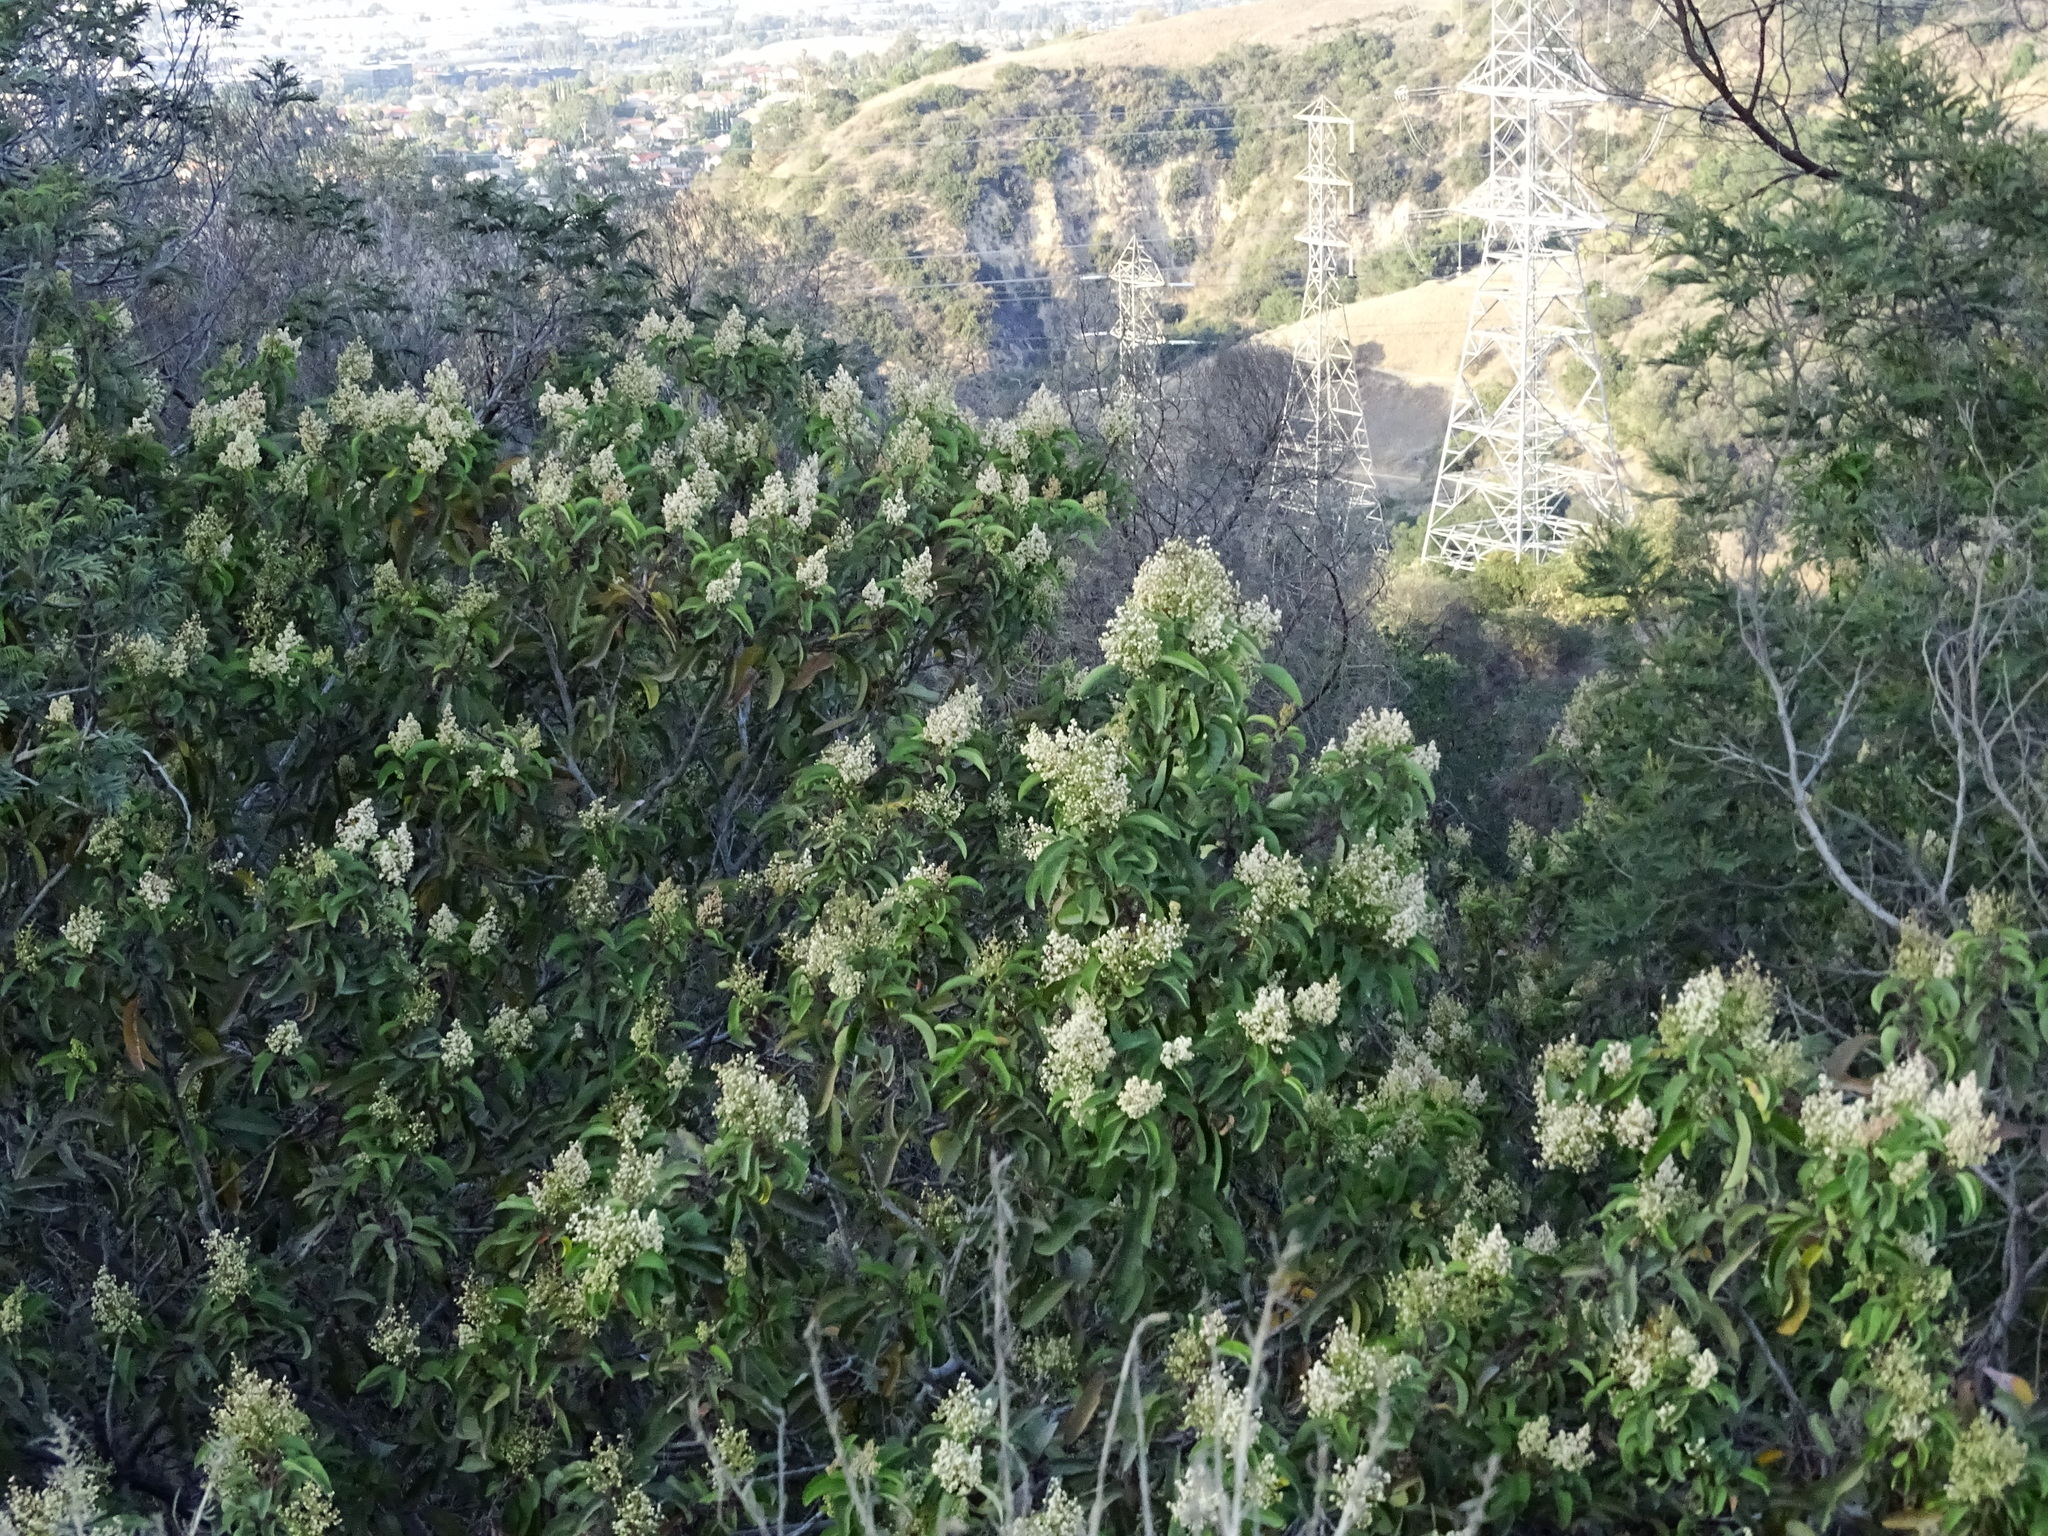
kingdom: Plantae
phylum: Tracheophyta
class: Magnoliopsida
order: Sapindales
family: Anacardiaceae
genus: Malosma
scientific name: Malosma laurina
